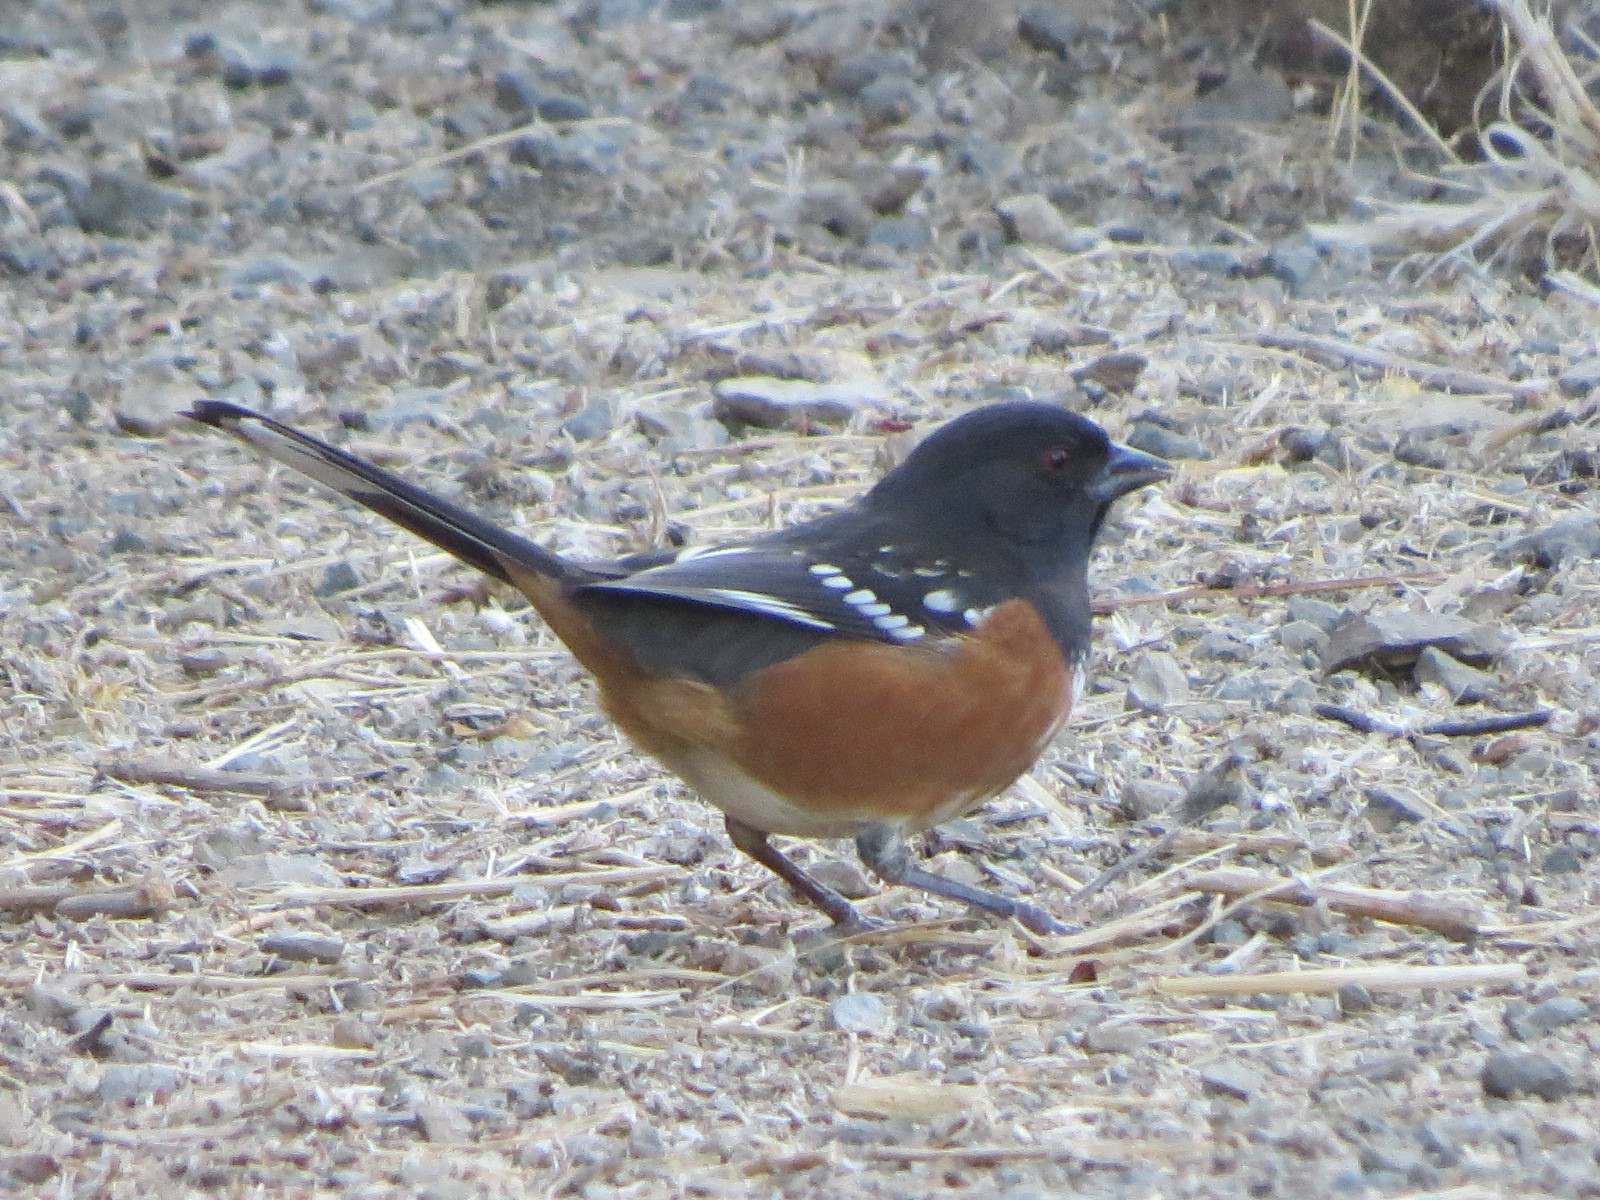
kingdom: Animalia
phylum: Chordata
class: Aves
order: Passeriformes
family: Passerellidae
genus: Pipilo
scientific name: Pipilo maculatus
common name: Spotted towhee
